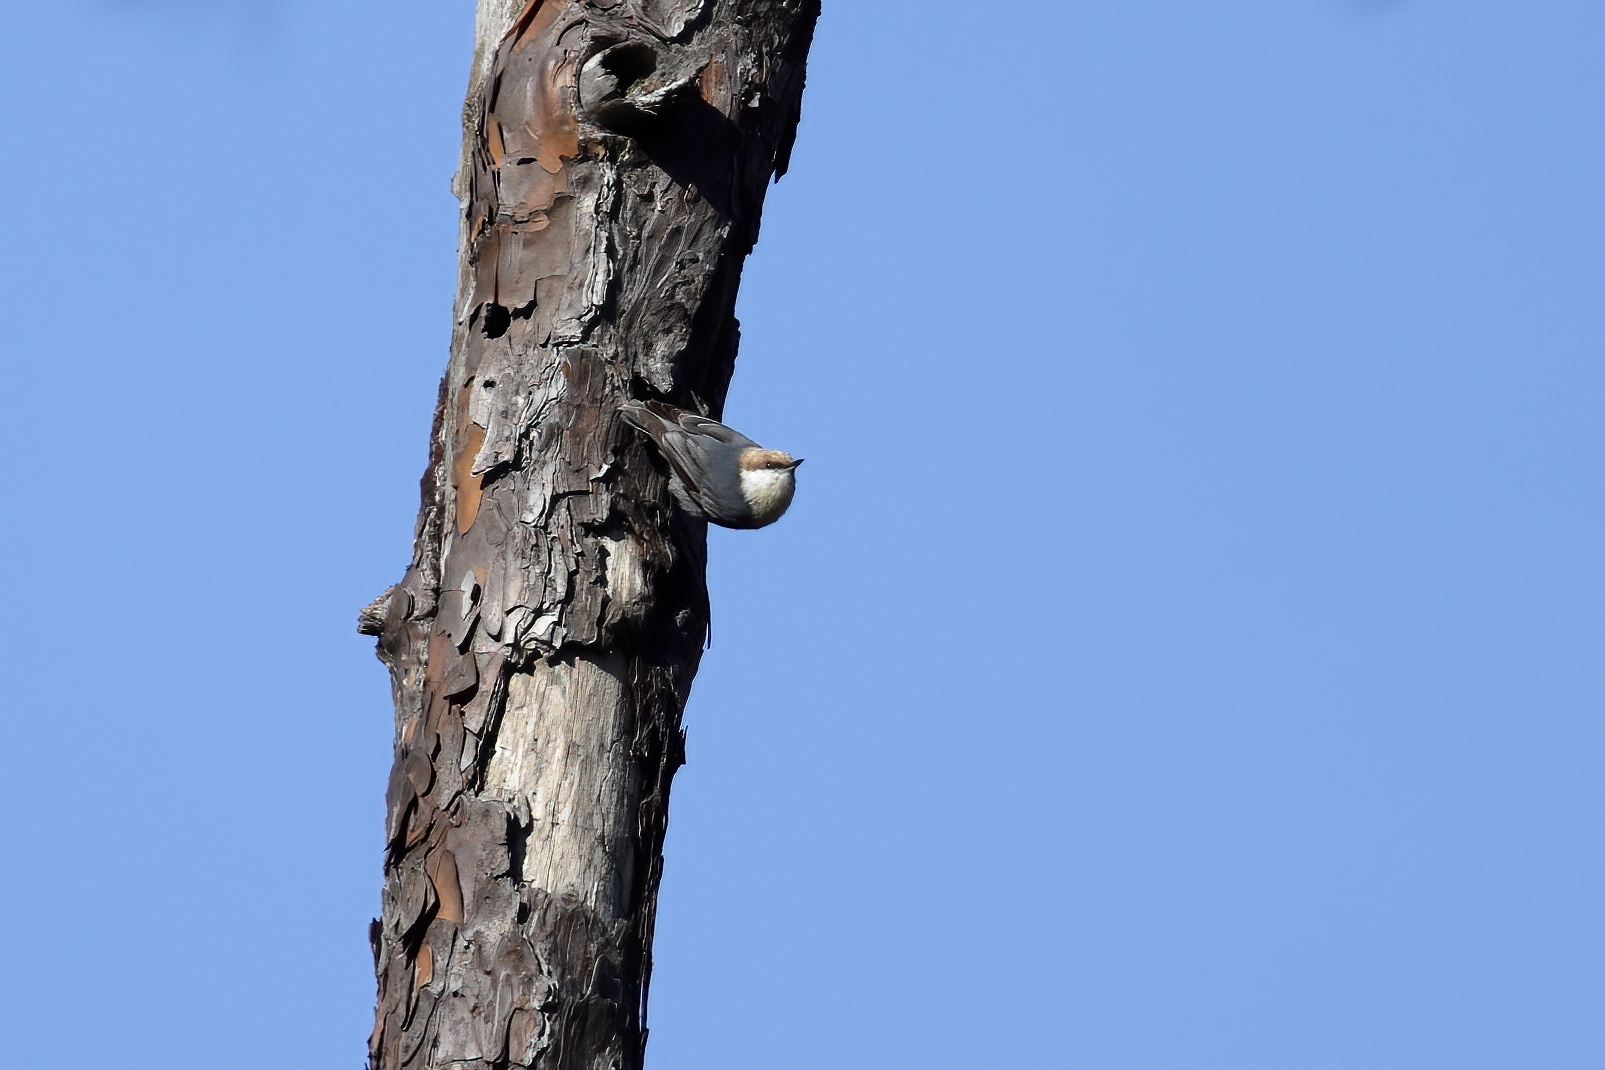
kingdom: Animalia
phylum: Chordata
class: Aves
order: Passeriformes
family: Sittidae
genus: Sitta
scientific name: Sitta pusilla
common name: Brown-headed nuthatch
